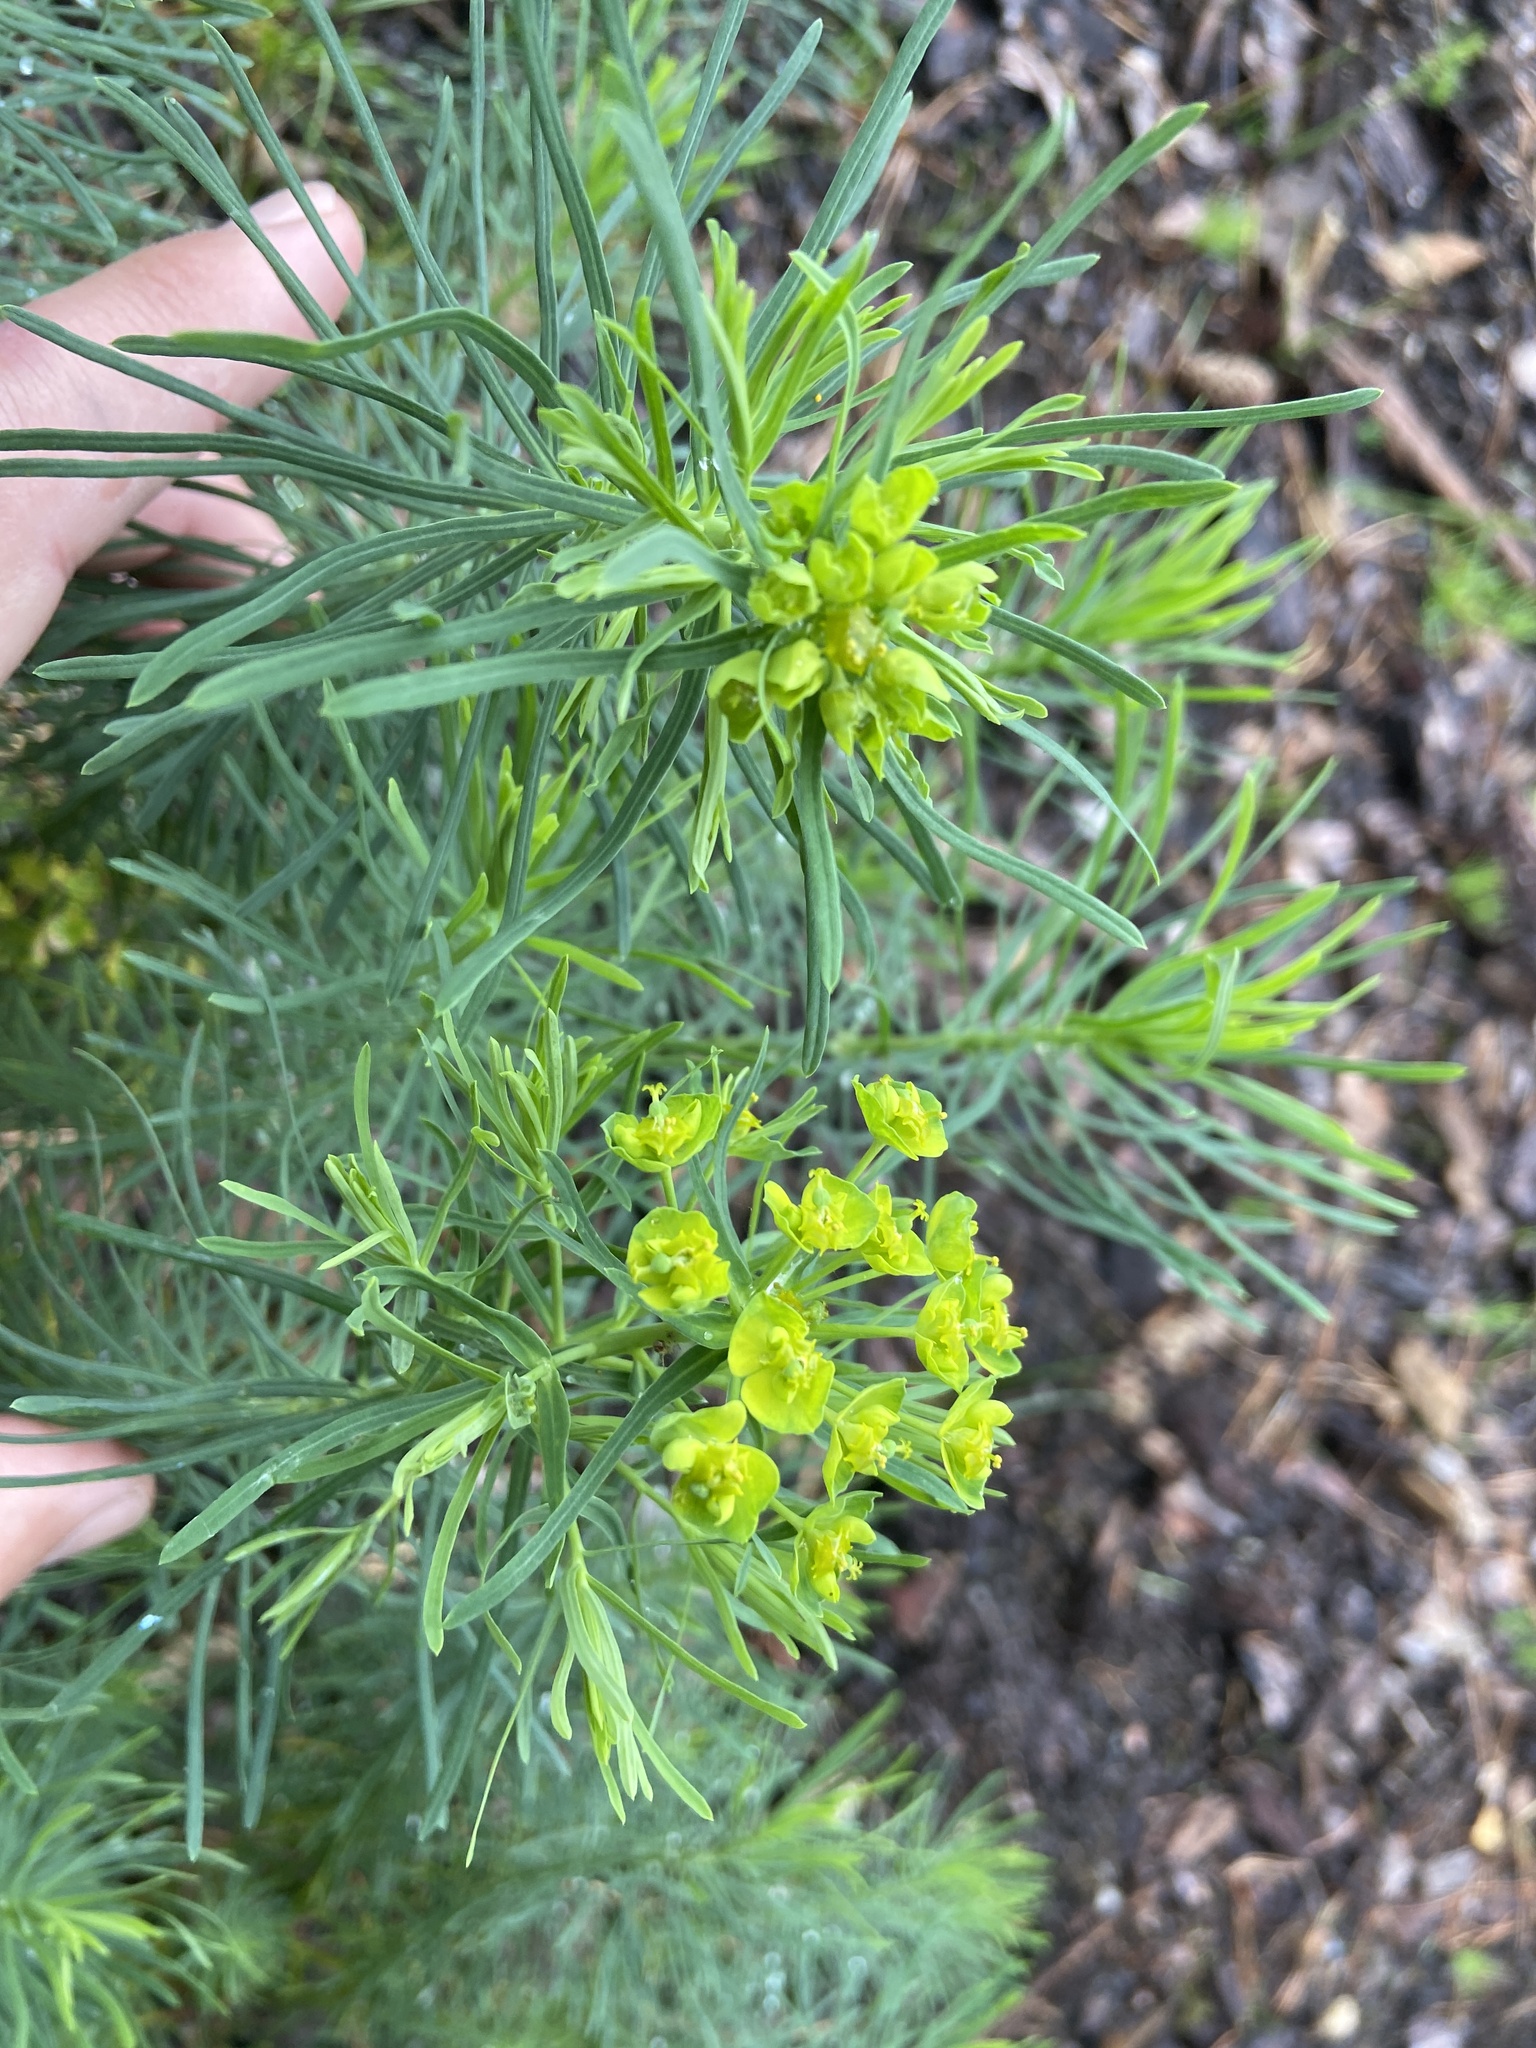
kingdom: Plantae
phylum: Tracheophyta
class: Magnoliopsida
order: Malpighiales
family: Euphorbiaceae
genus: Euphorbia
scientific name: Euphorbia cyparissias
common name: Cypress spurge
